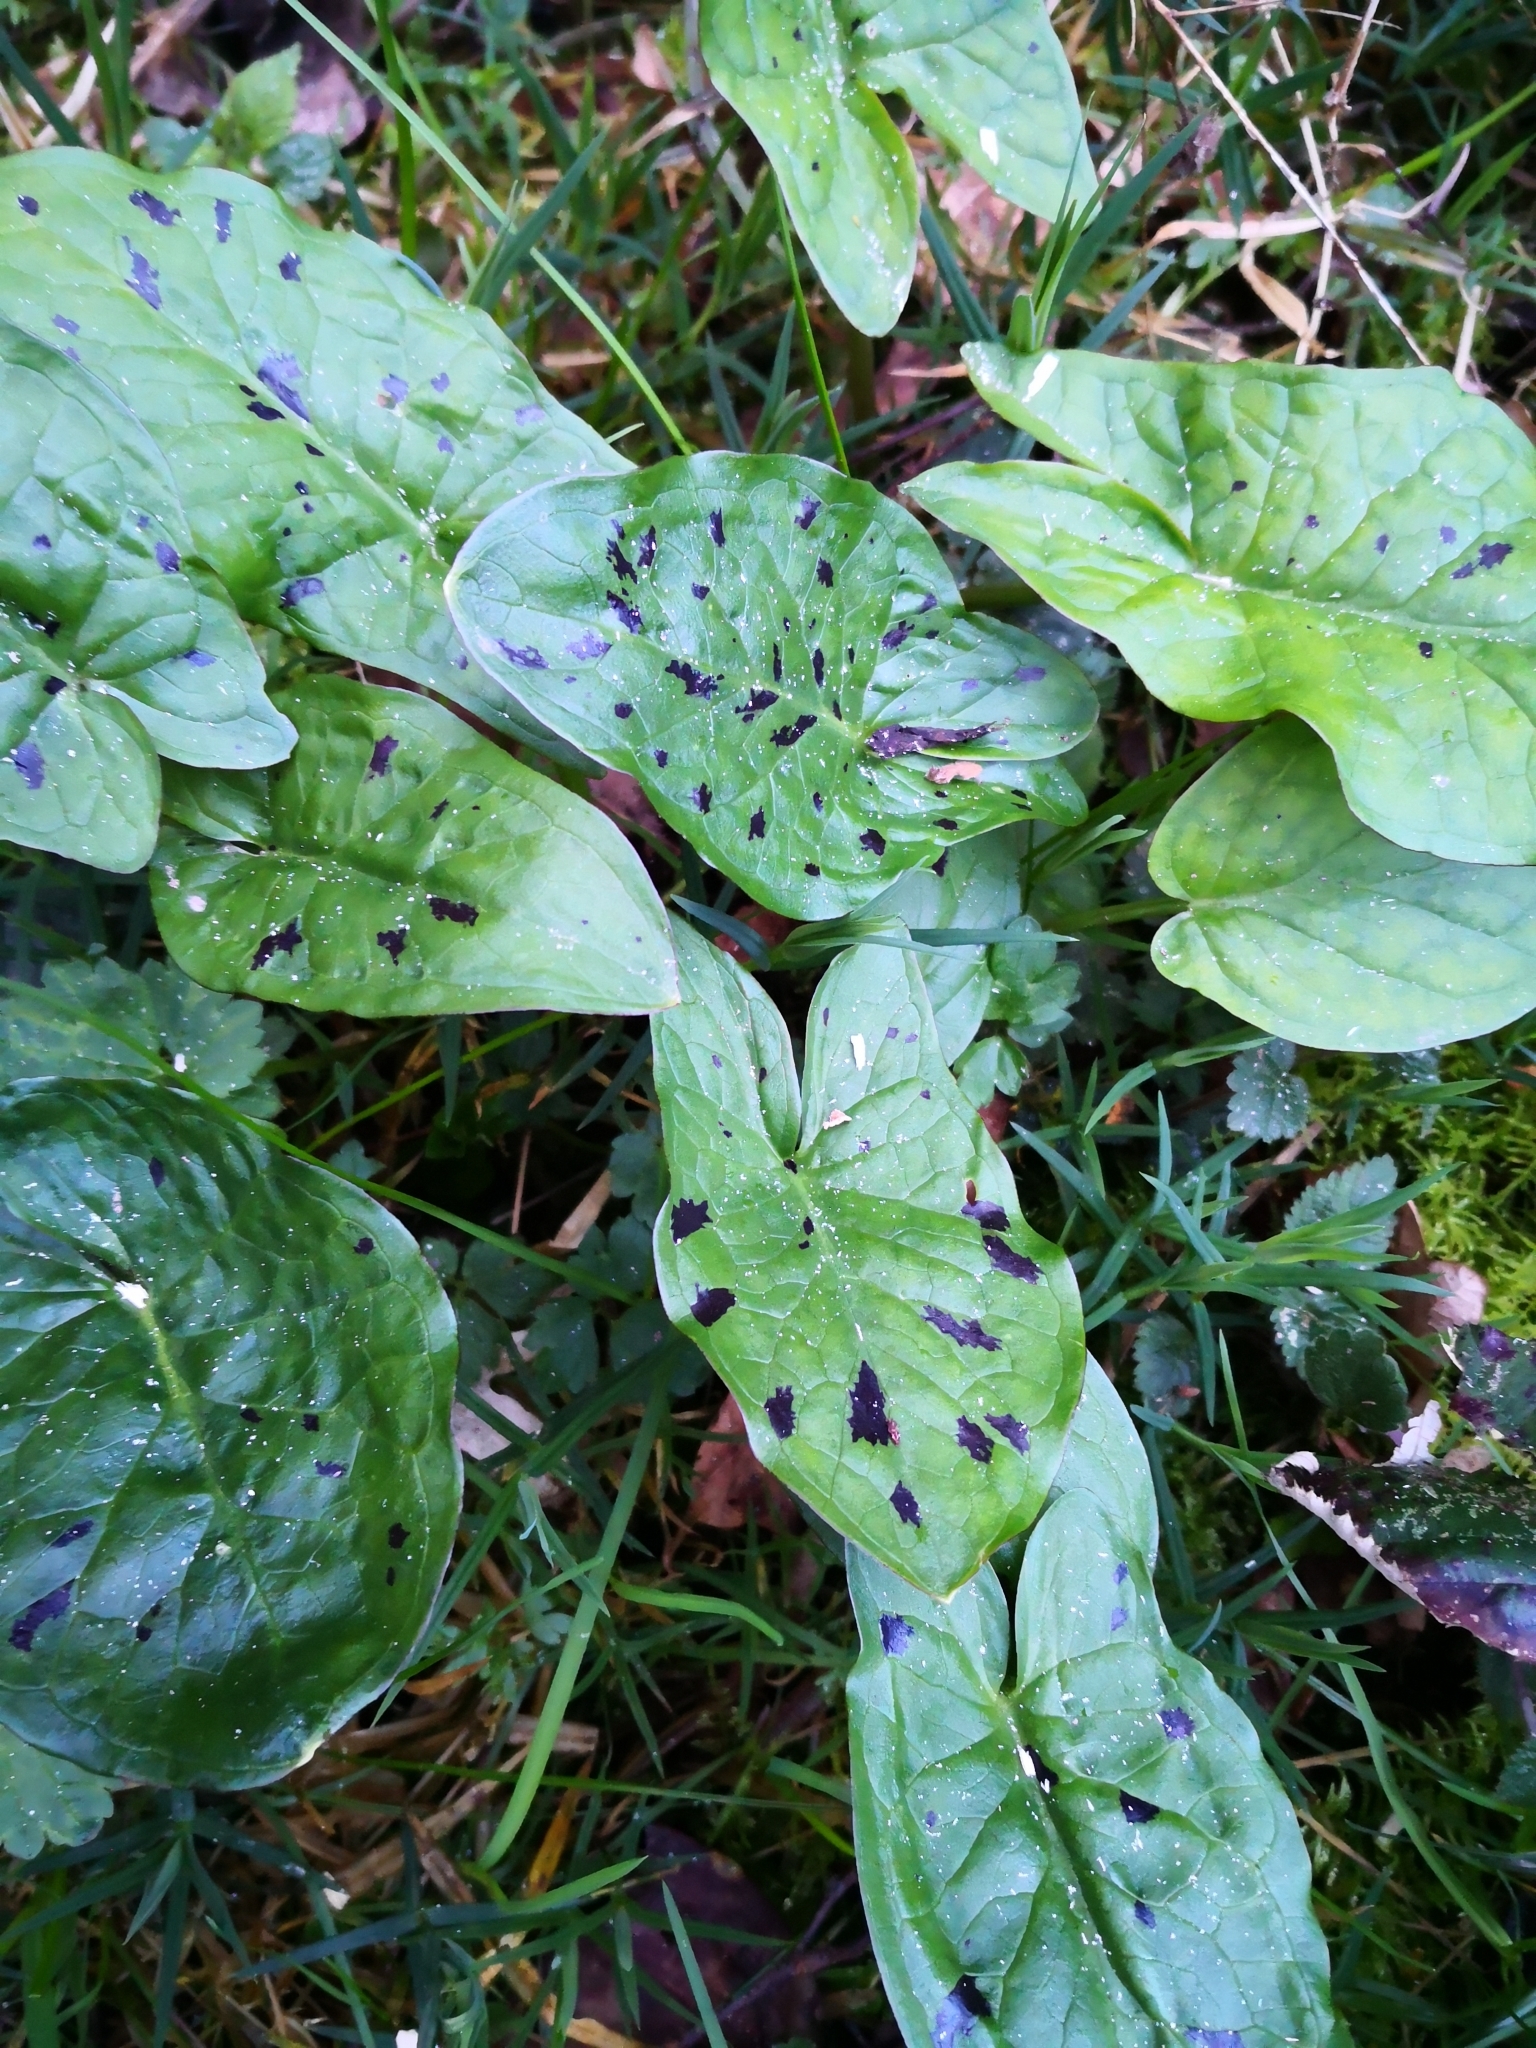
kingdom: Plantae
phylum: Tracheophyta
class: Liliopsida
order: Alismatales
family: Araceae
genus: Arum
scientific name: Arum maculatum
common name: Lords-and-ladies
